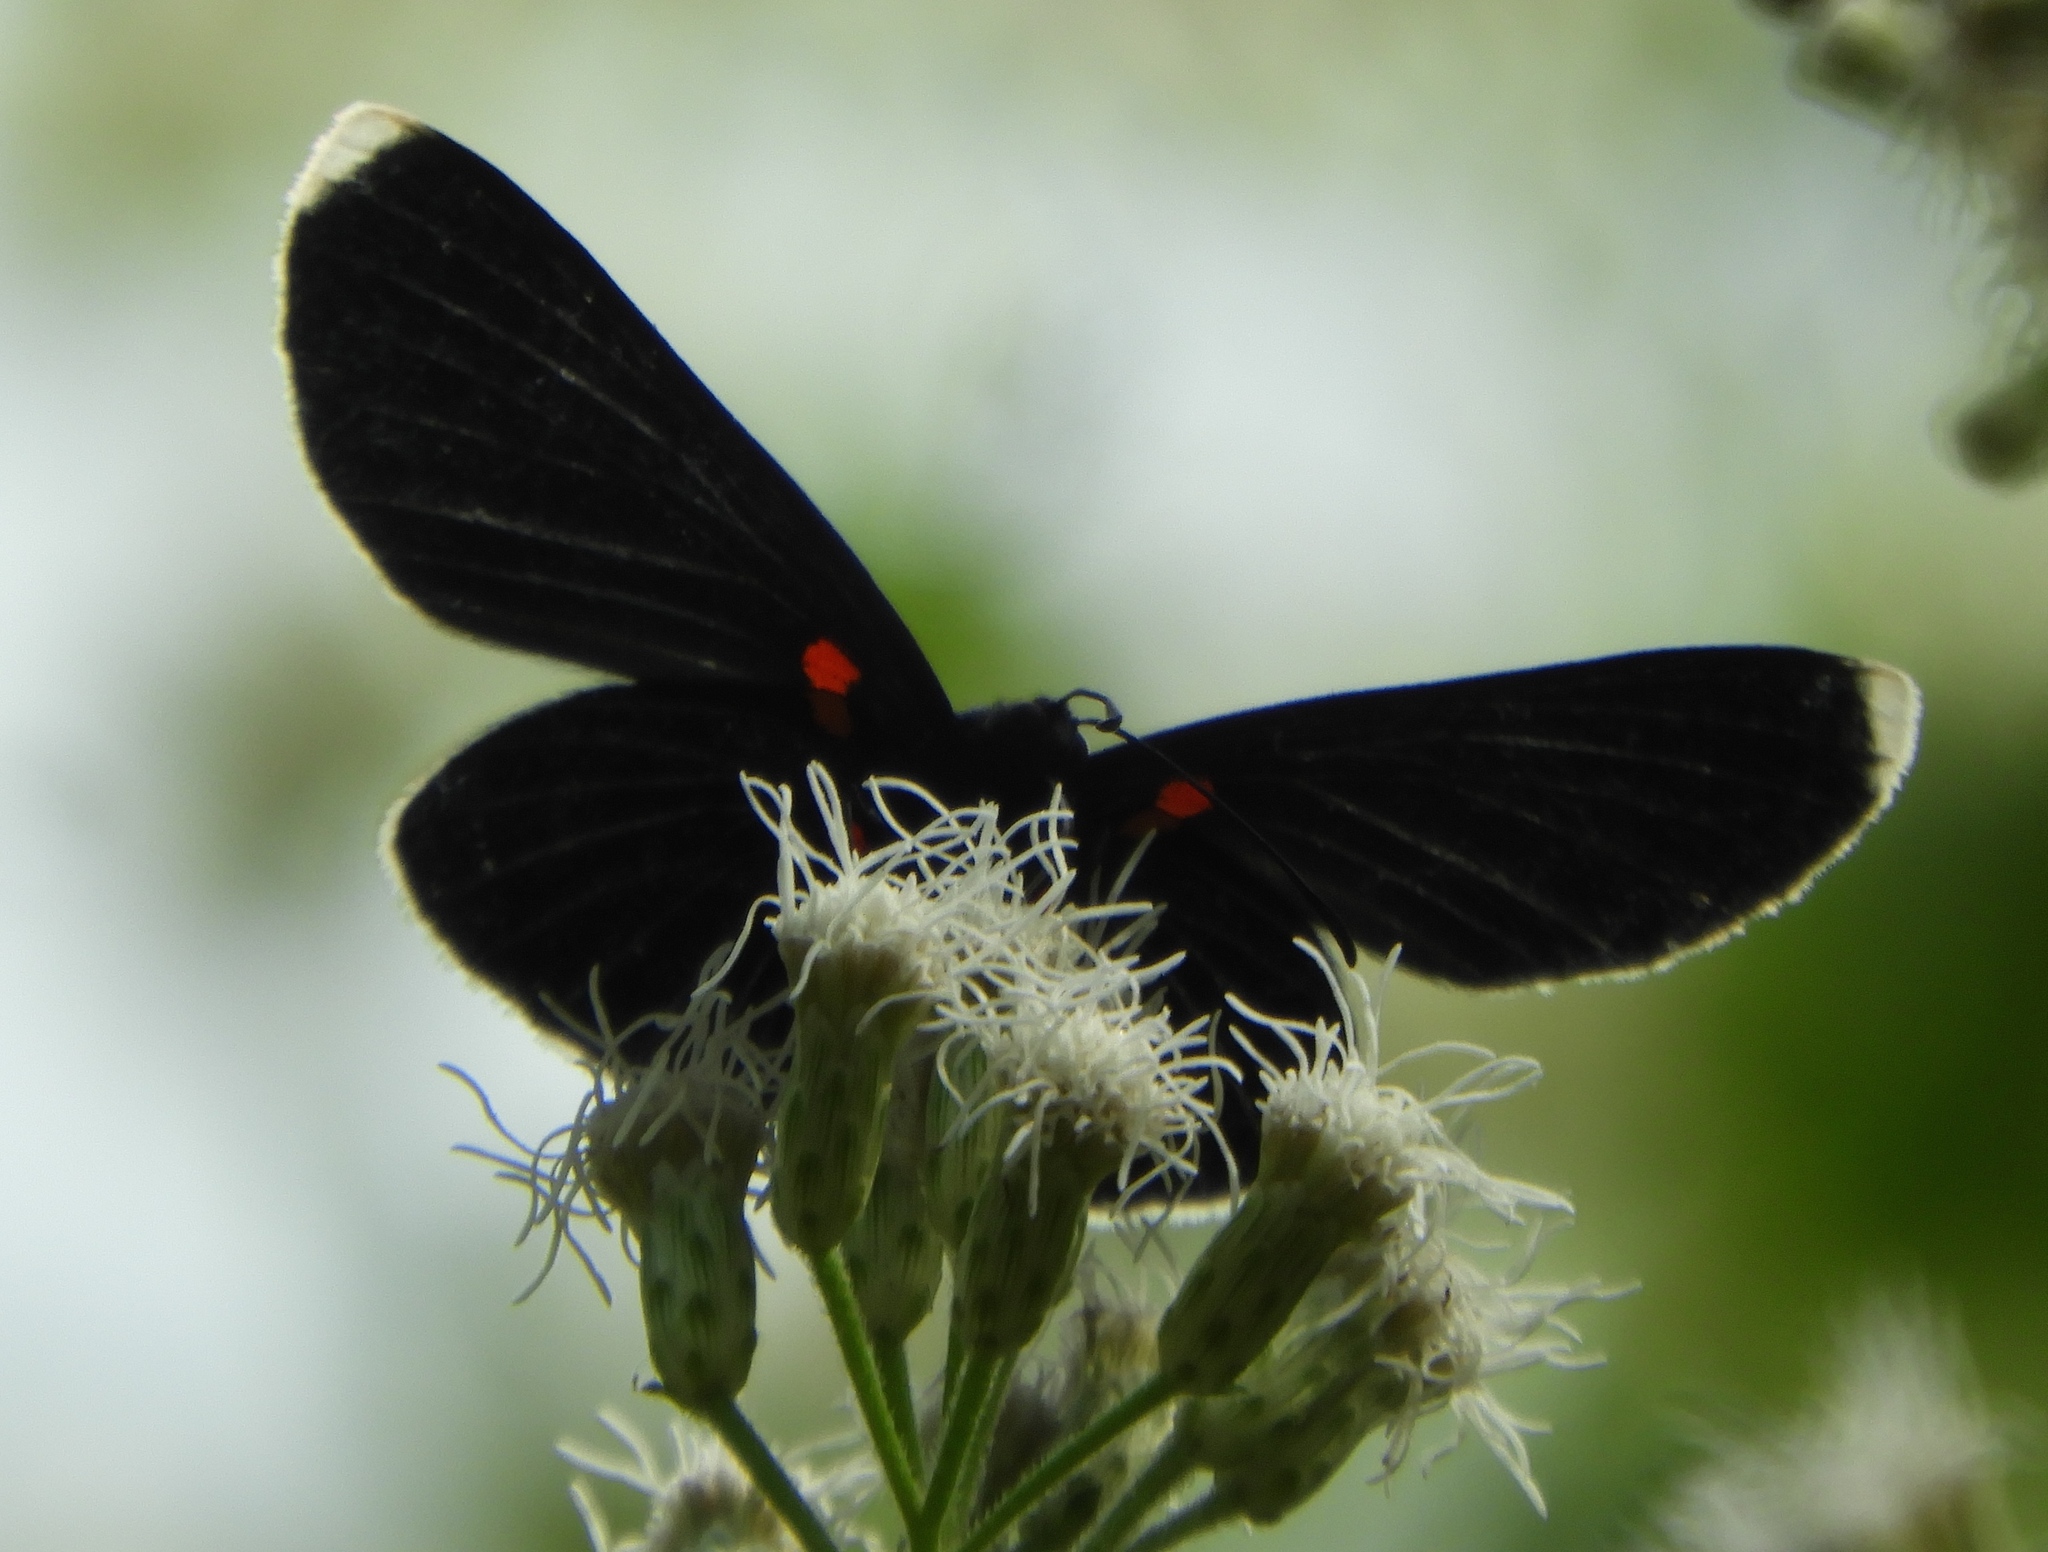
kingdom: Animalia
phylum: Arthropoda
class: Insecta
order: Lepidoptera
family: Lycaenidae
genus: Melanis
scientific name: Melanis
